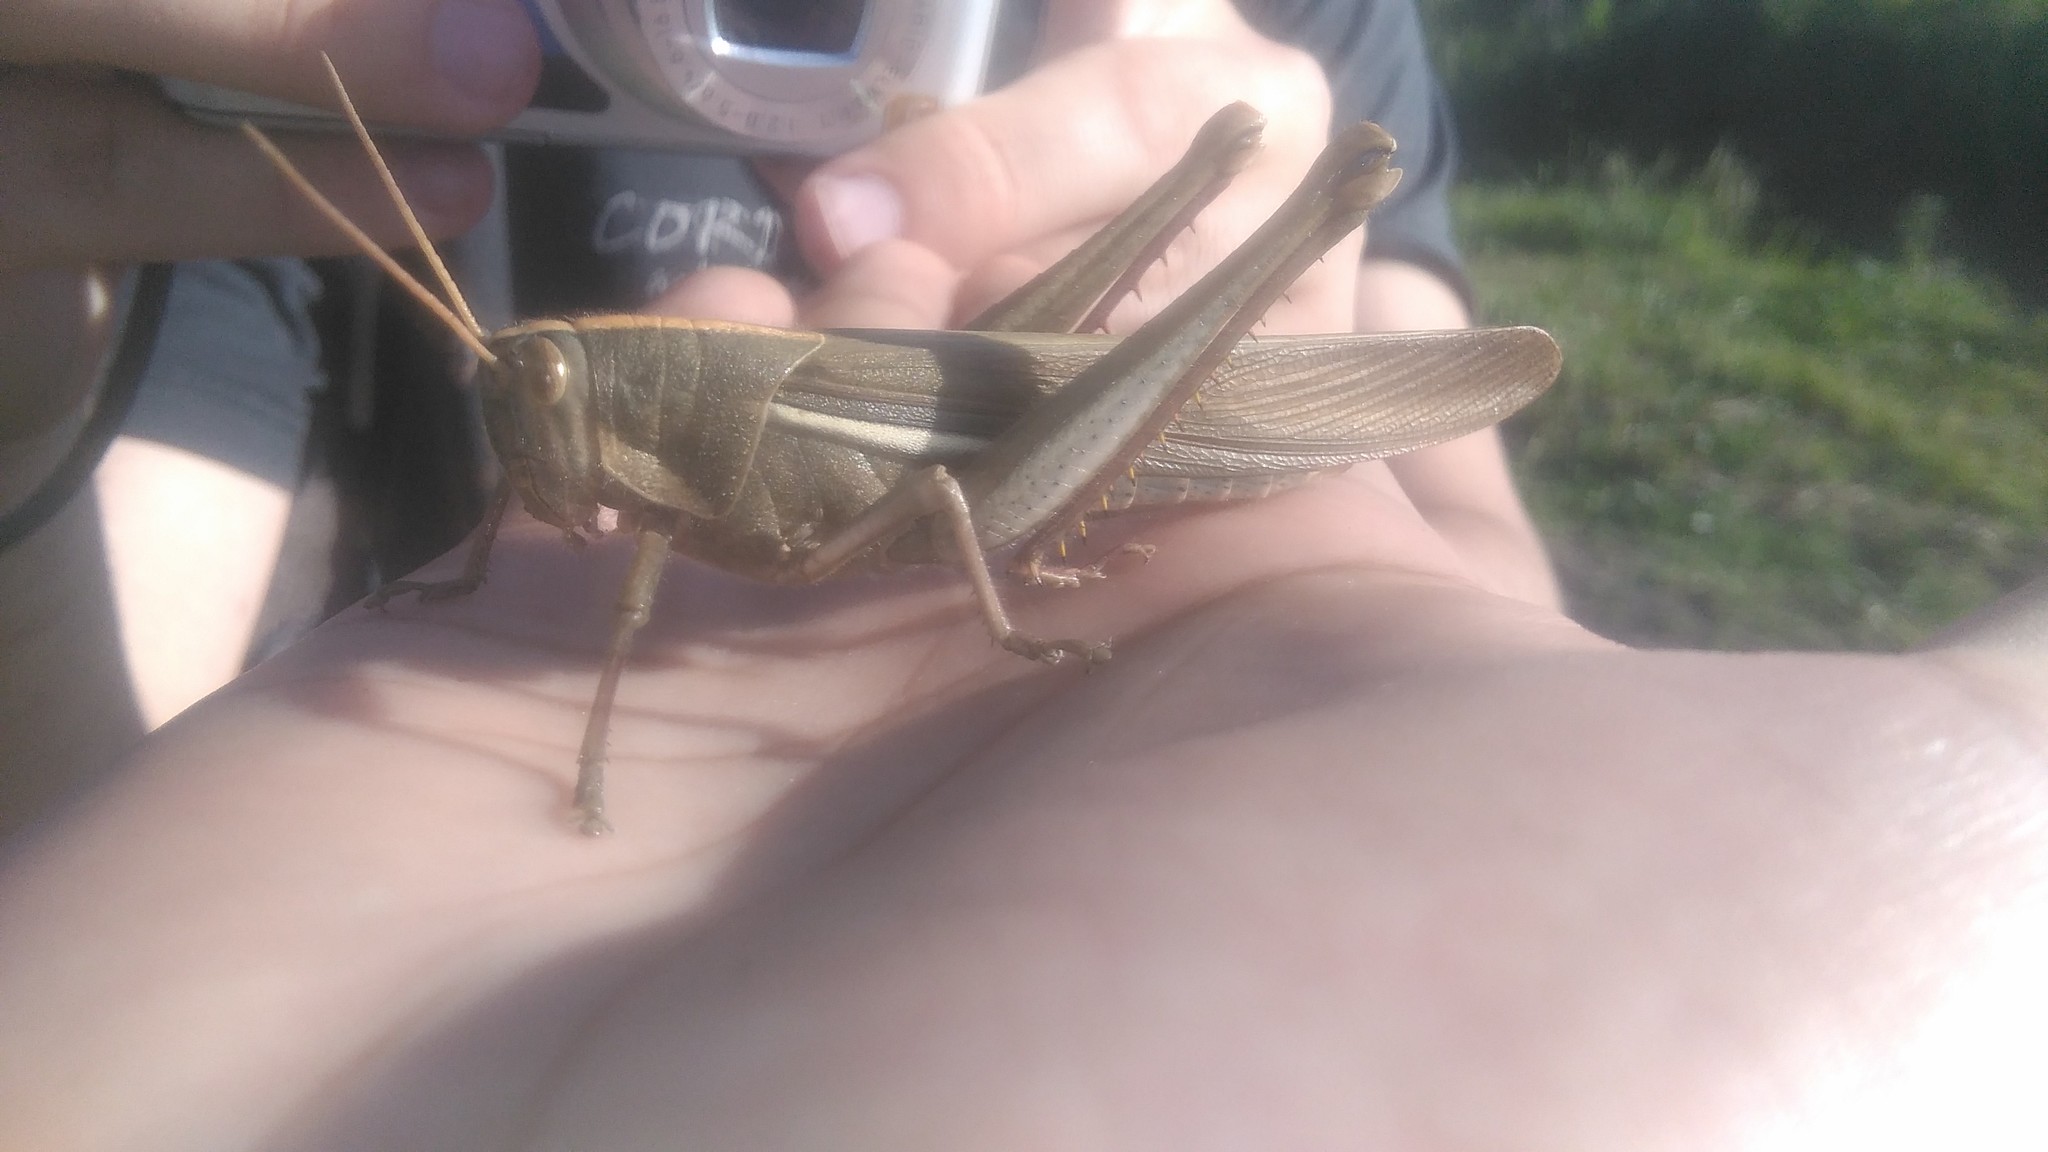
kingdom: Animalia
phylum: Arthropoda
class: Insecta
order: Orthoptera
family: Acrididae
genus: Schistocerca
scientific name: Schistocerca flavofasciata
